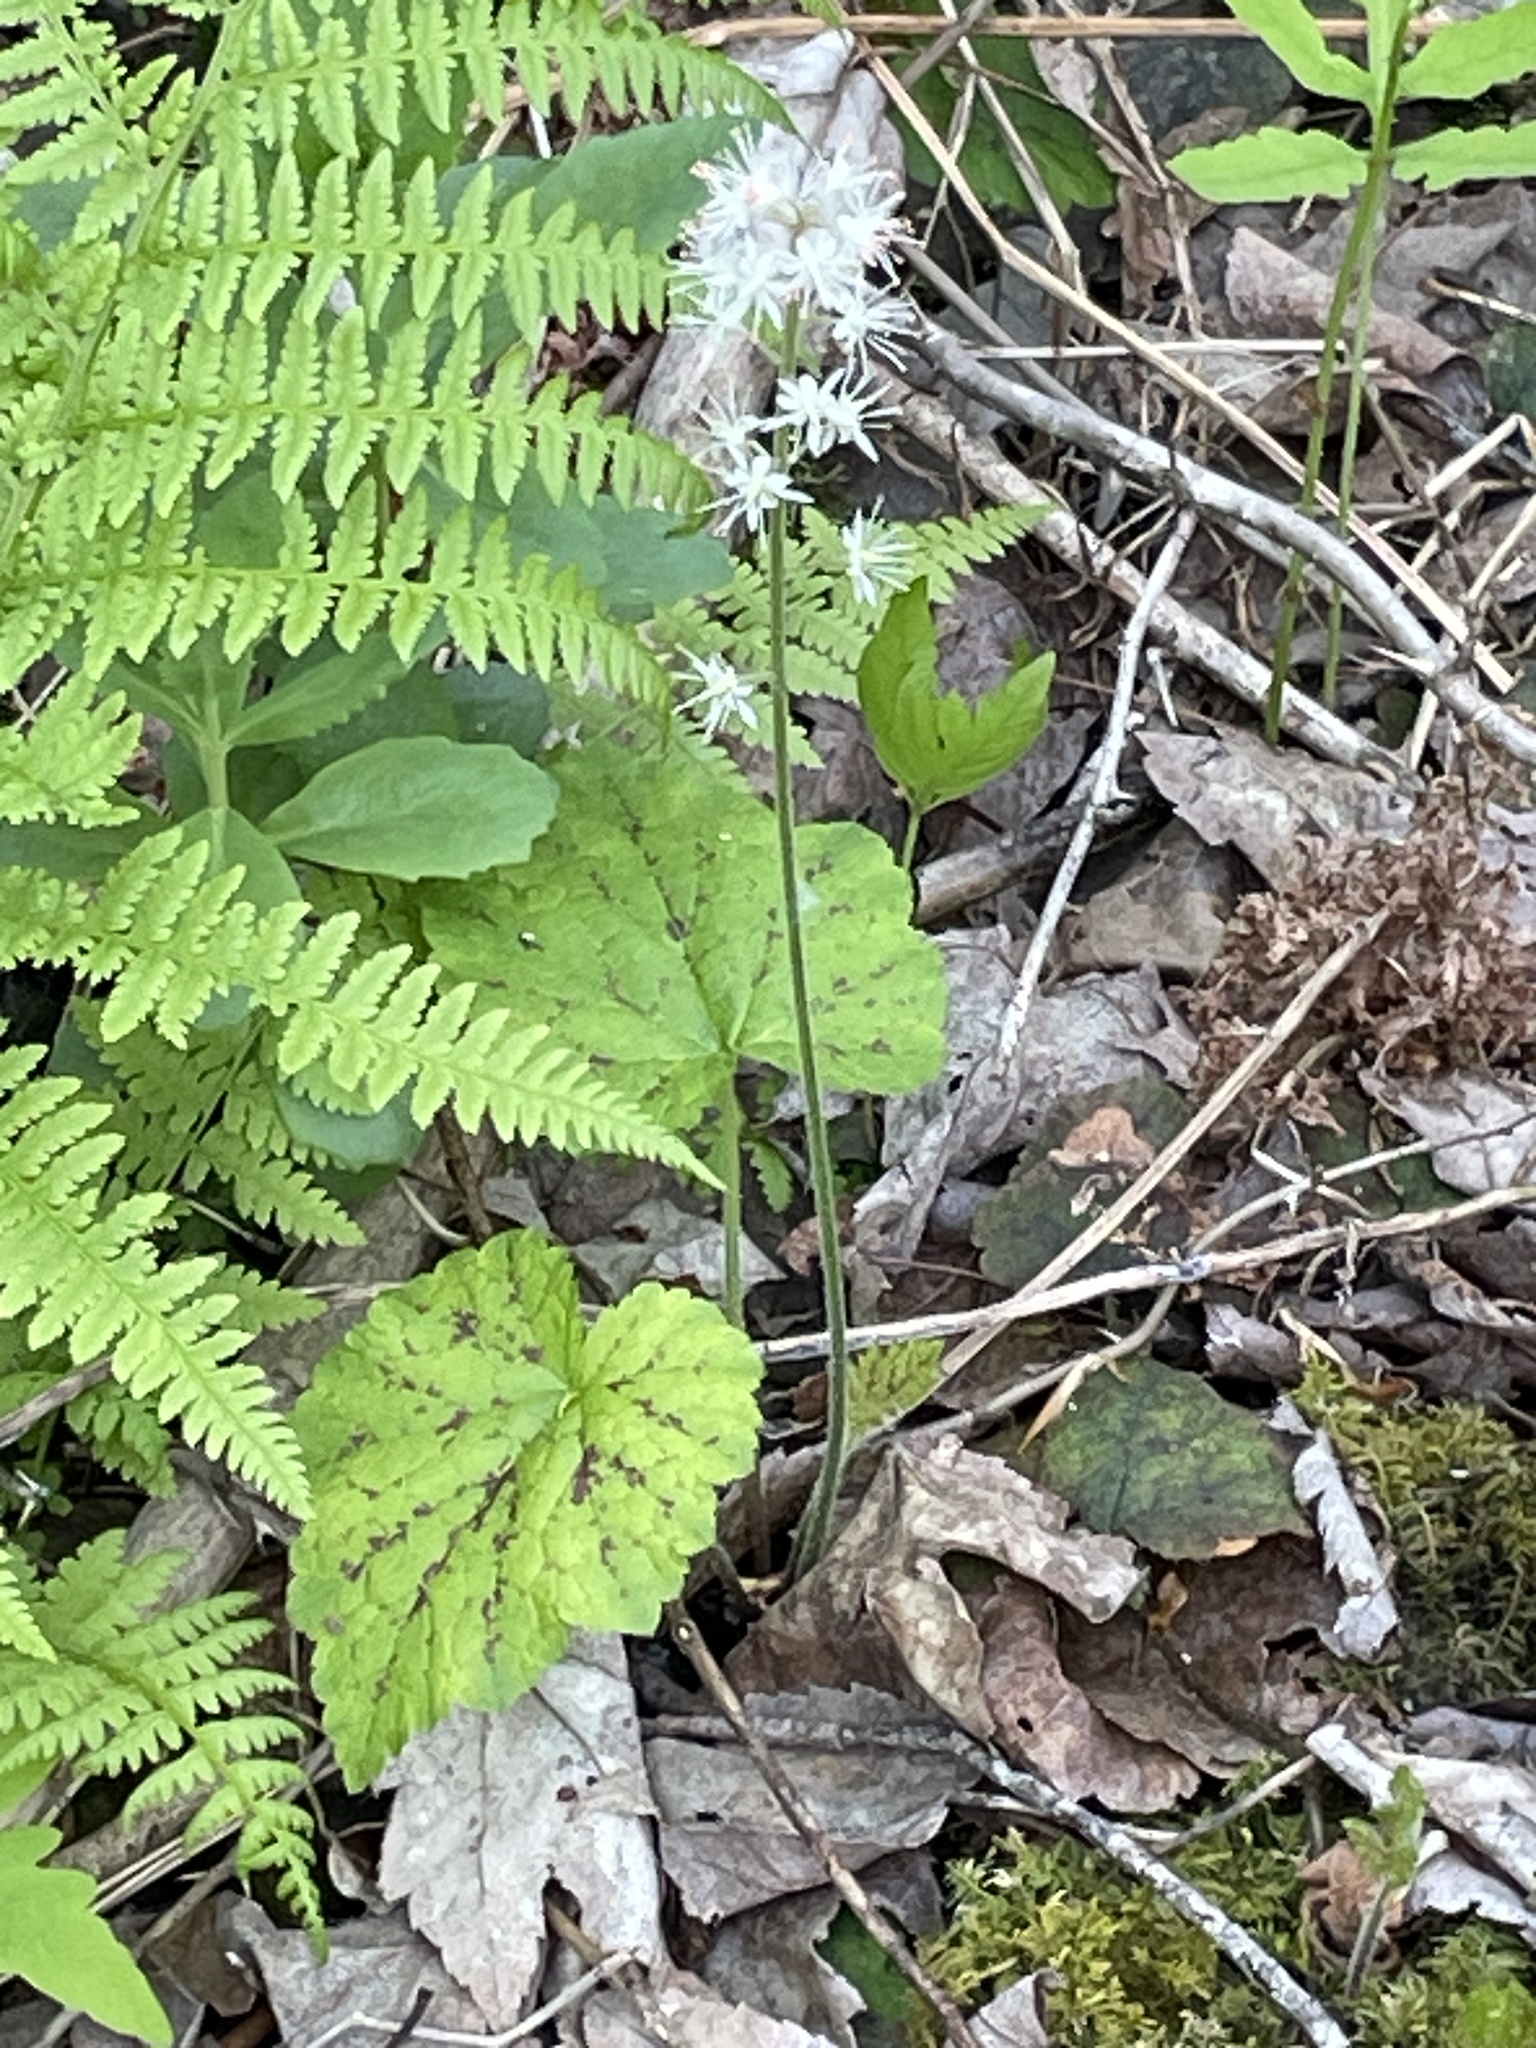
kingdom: Plantae
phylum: Tracheophyta
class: Magnoliopsida
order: Saxifragales
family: Saxifragaceae
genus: Tiarella
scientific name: Tiarella stolonifera
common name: Stoloniferous foamflower
